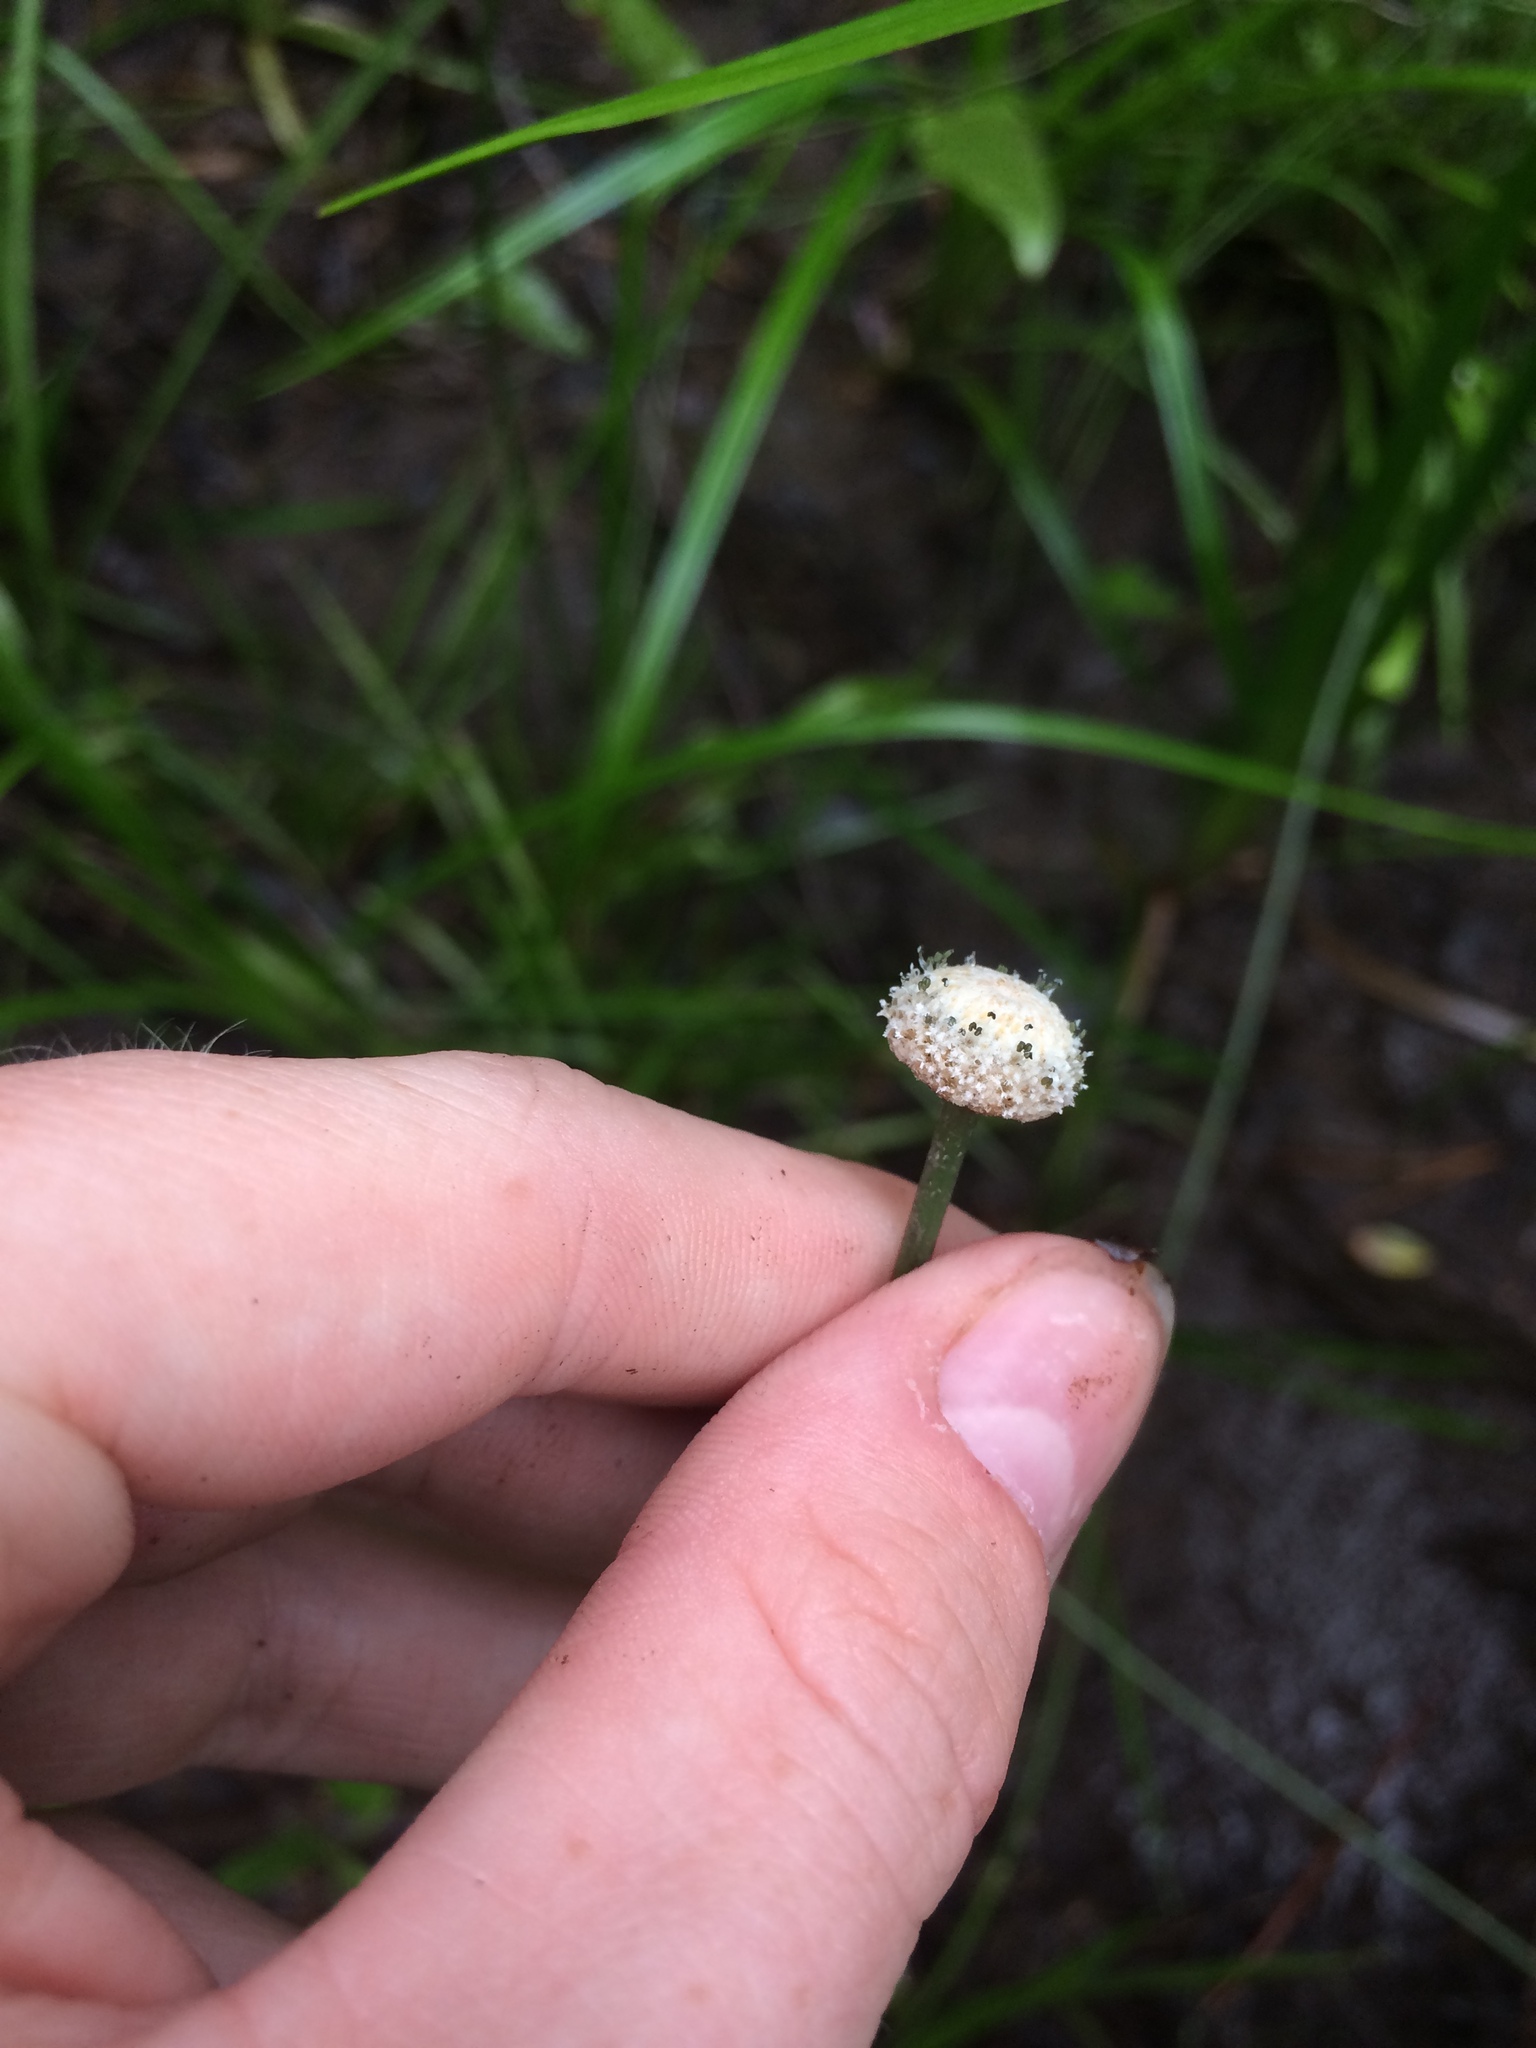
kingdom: Plantae
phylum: Tracheophyta
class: Liliopsida
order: Poales
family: Eriocaulaceae
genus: Eriocaulon
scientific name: Eriocaulon decangulare
